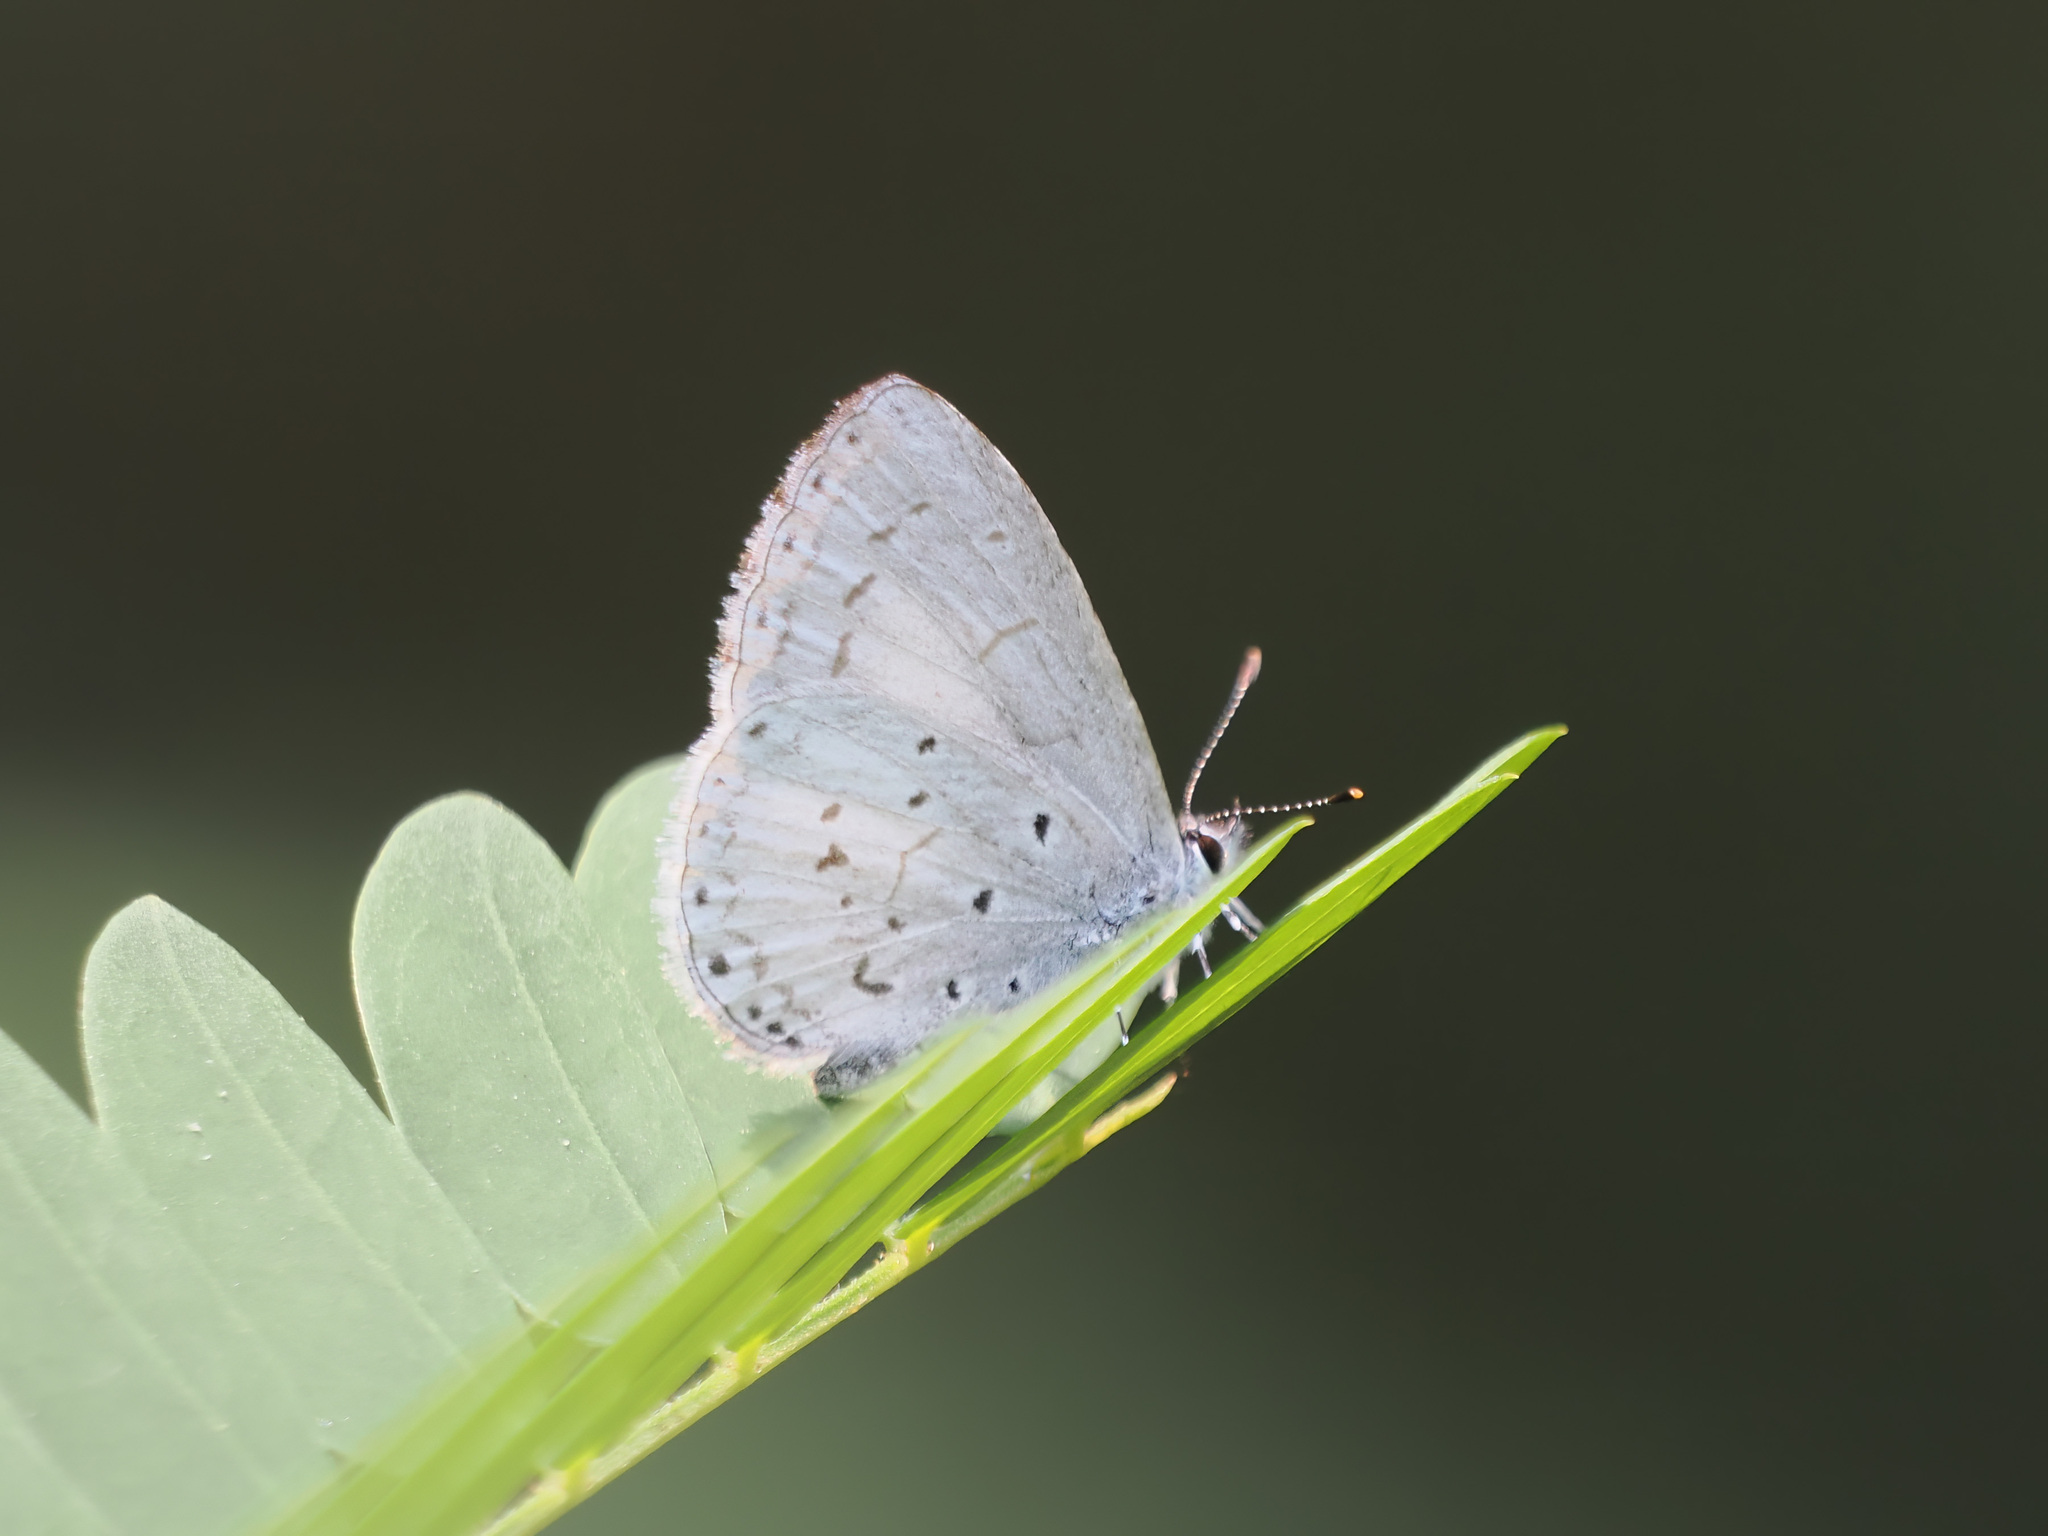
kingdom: Animalia
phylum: Arthropoda
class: Insecta
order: Lepidoptera
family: Lycaenidae
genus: Udara
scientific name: Udara dilectus
